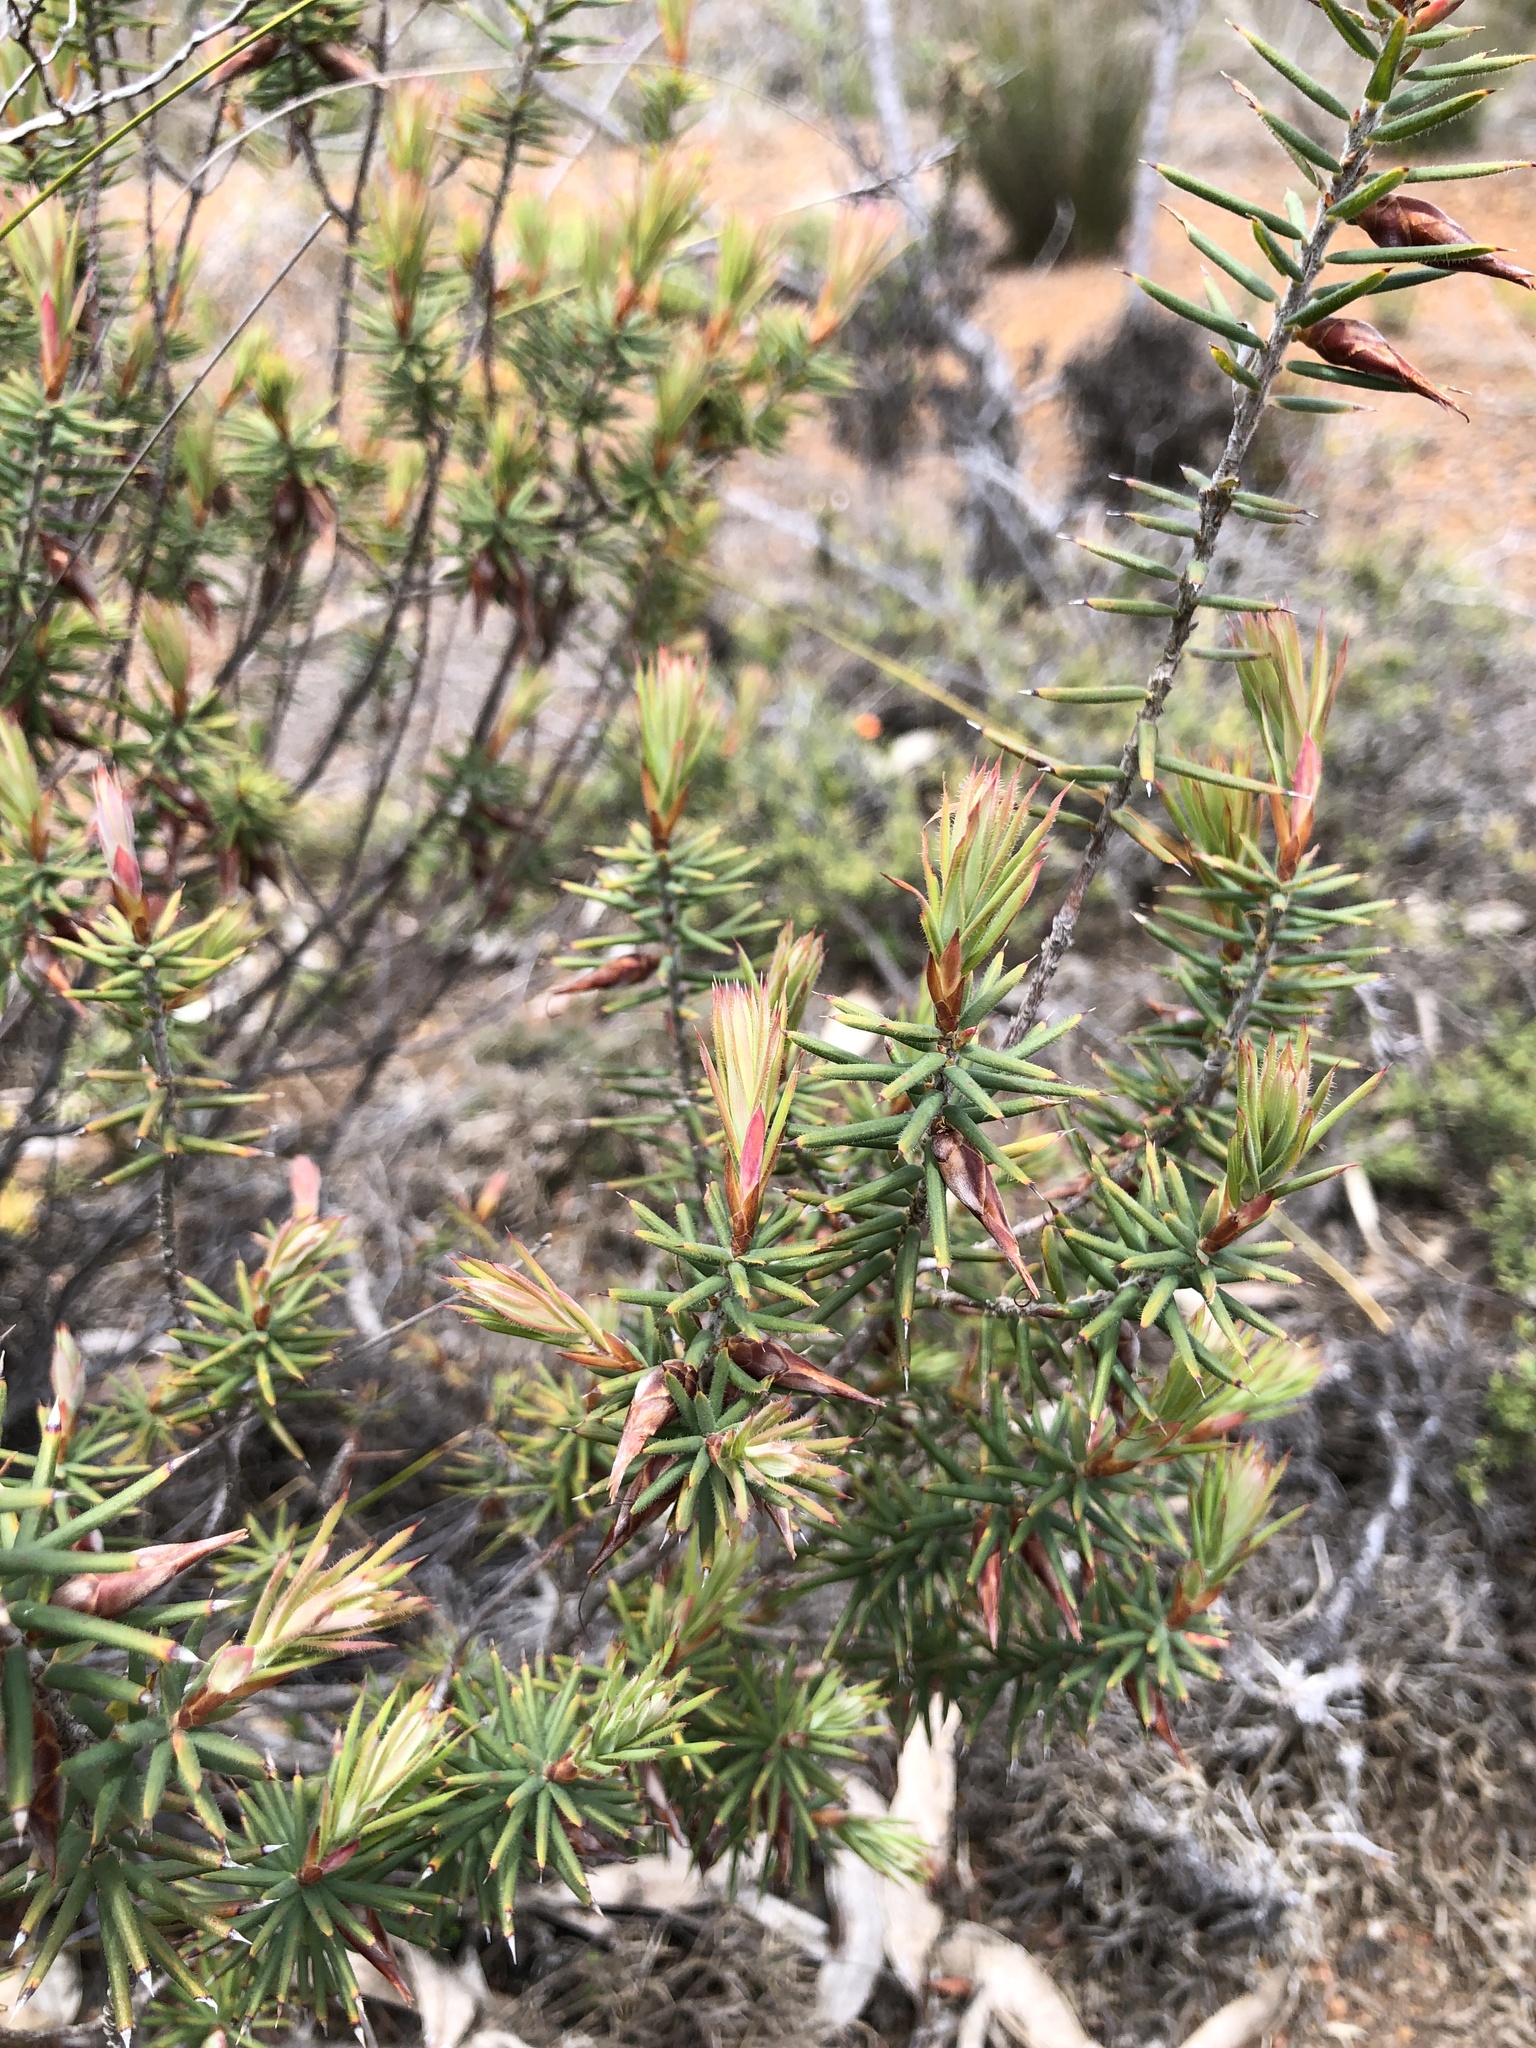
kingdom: Plantae
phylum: Tracheophyta
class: Magnoliopsida
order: Ericales
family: Ericaceae
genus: Stenanthera
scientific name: Stenanthera conostephioides
